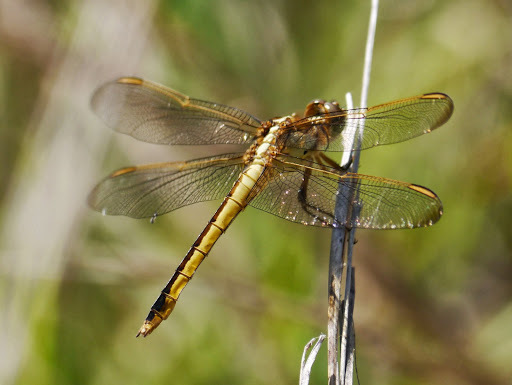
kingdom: Animalia
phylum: Arthropoda
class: Insecta
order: Odonata
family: Libellulidae
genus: Libellula
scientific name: Libellula needhami
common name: Needham's skimmer
